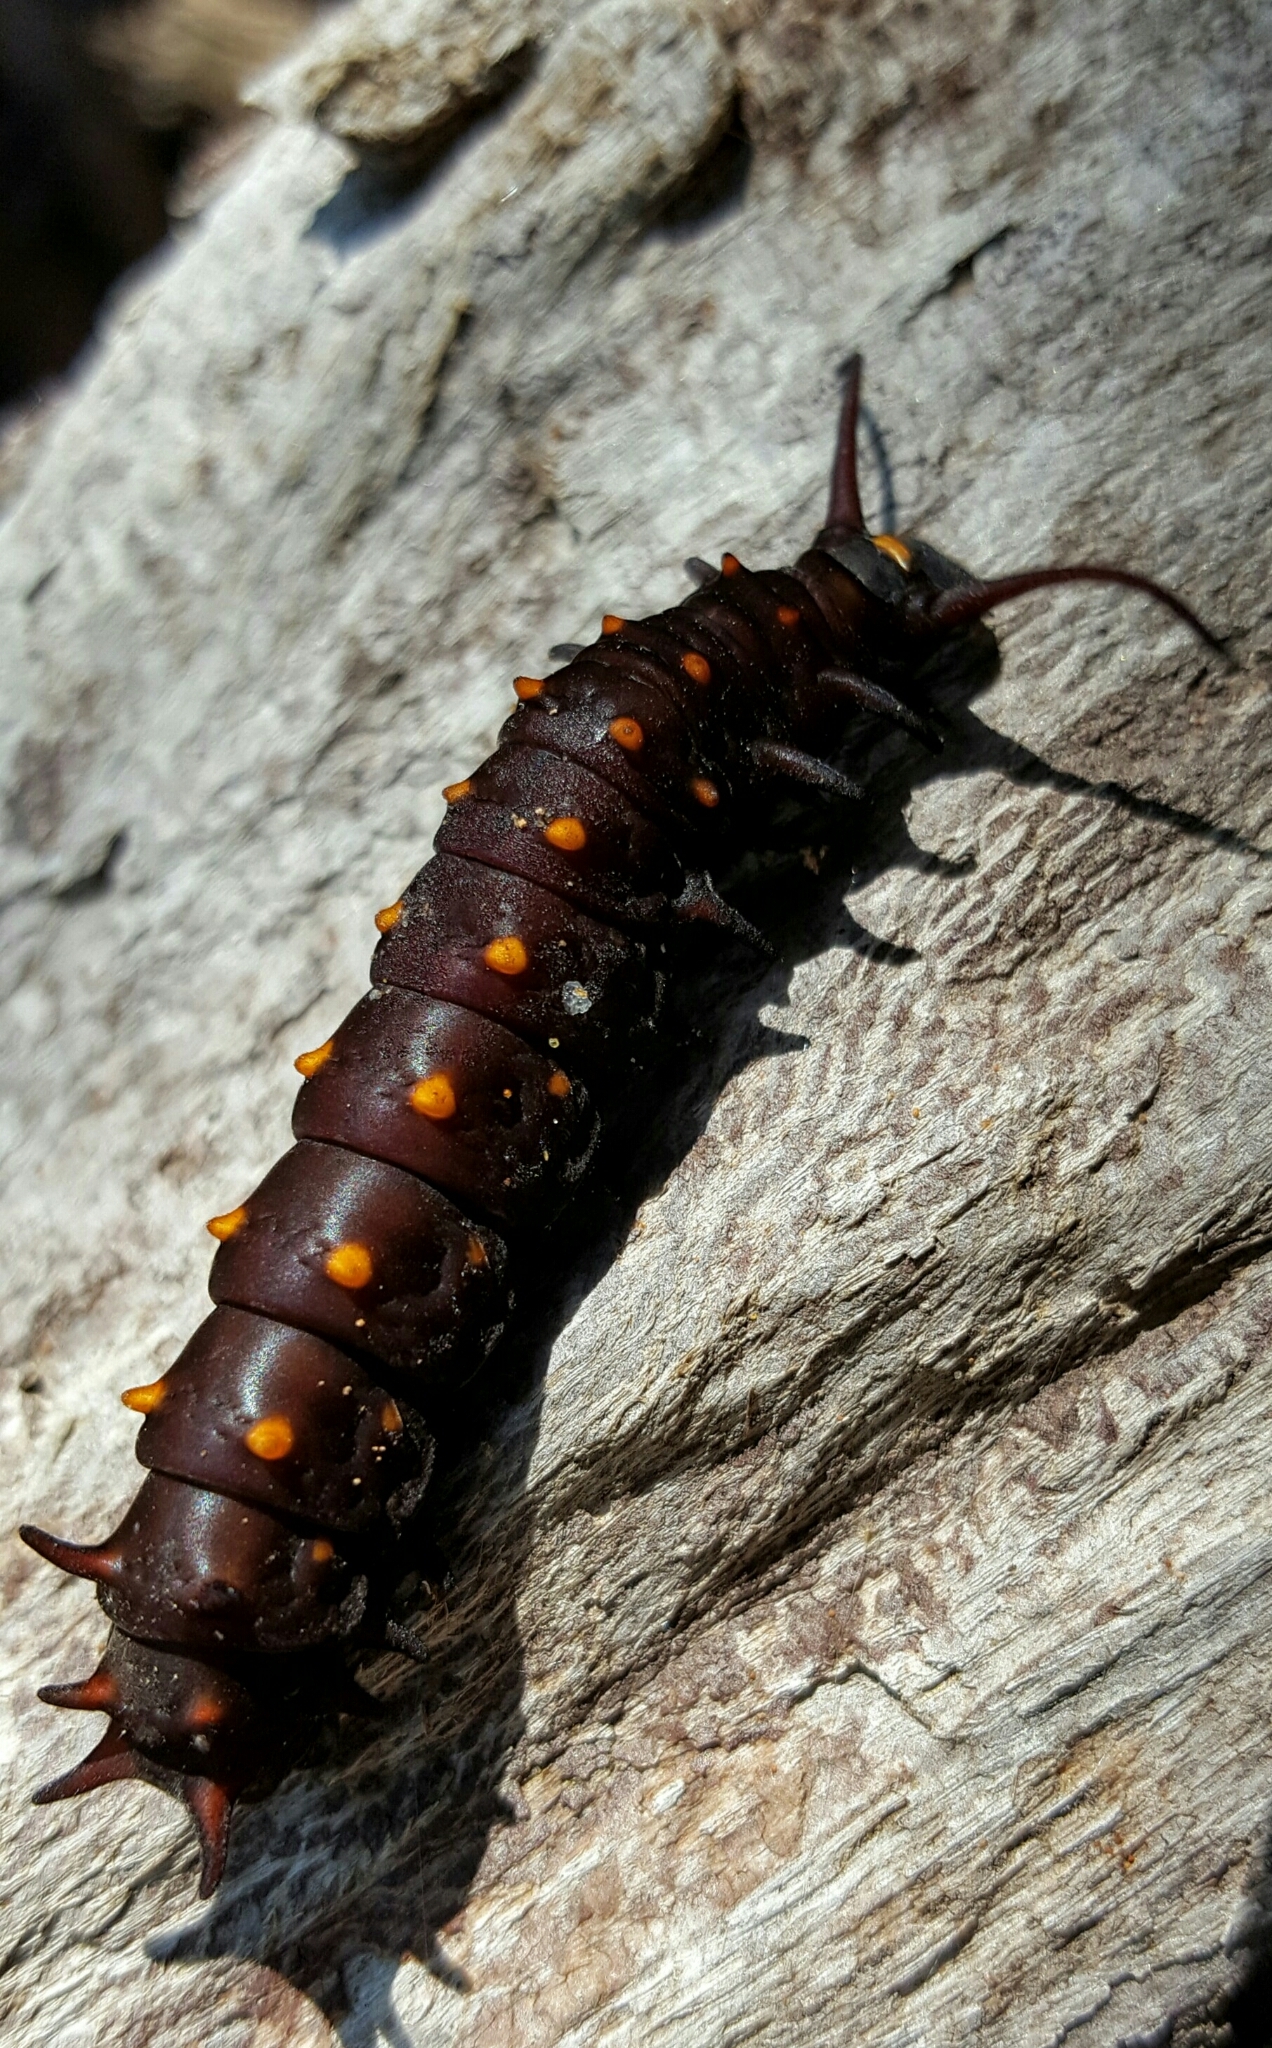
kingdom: Animalia
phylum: Arthropoda
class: Insecta
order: Lepidoptera
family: Papilionidae
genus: Battus
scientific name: Battus philenor
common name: Pipevine swallowtail
